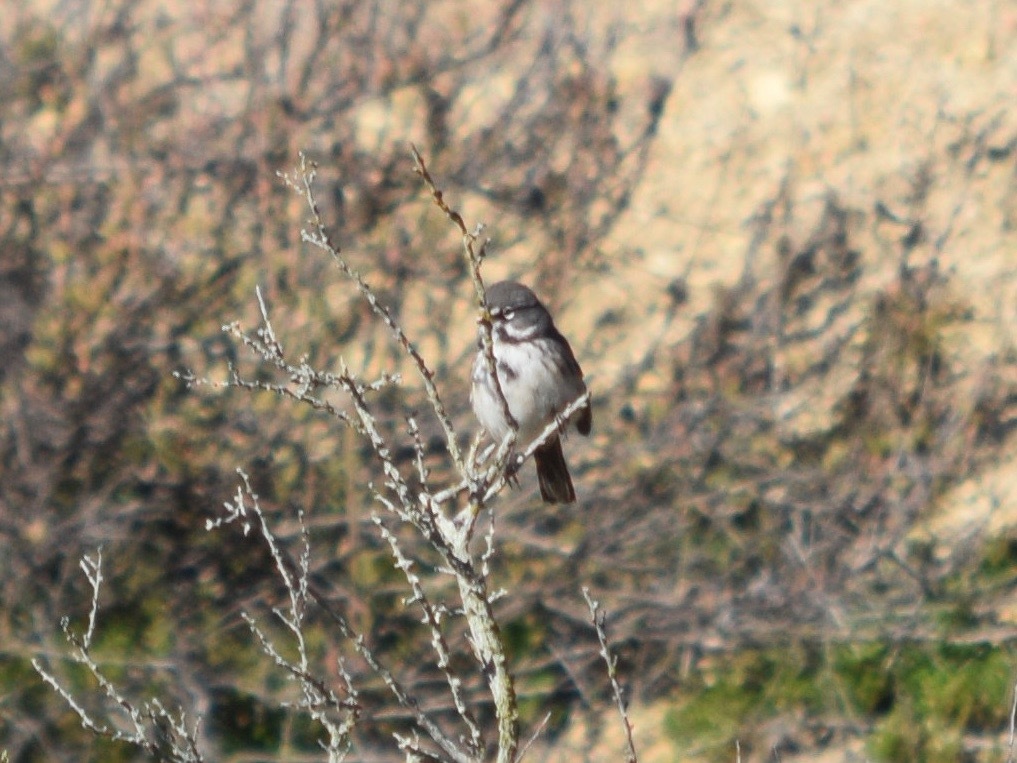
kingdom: Animalia
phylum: Chordata
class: Aves
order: Passeriformes
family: Passerellidae
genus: Artemisiospiza
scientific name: Artemisiospiza belli
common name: Bell's sparrow
